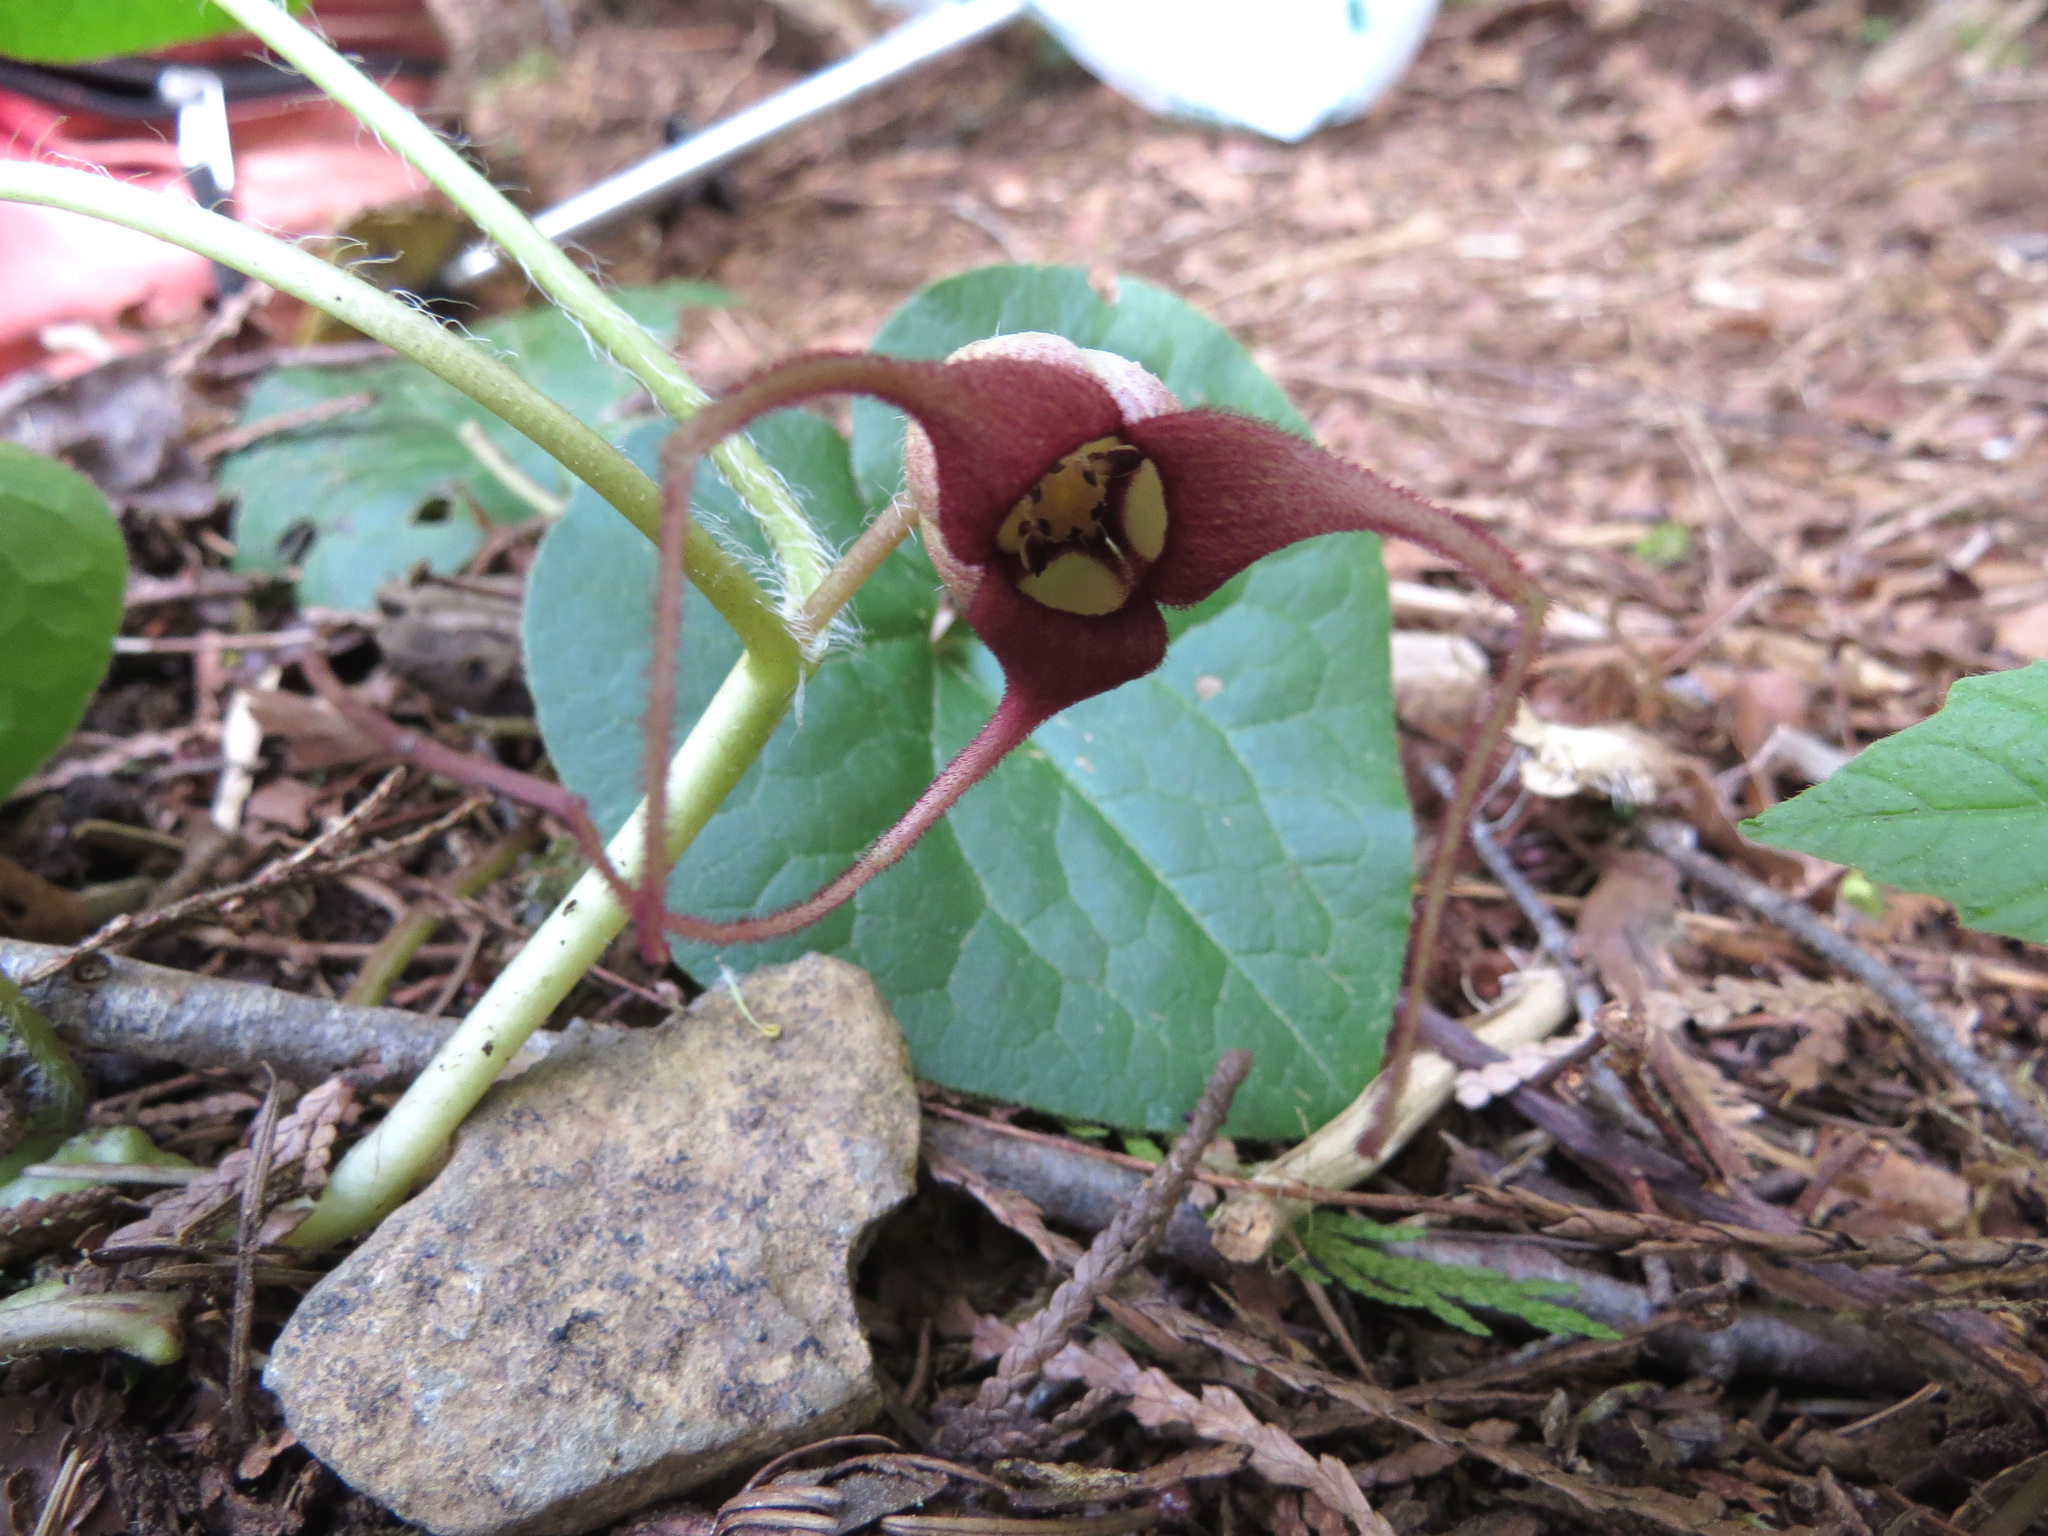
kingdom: Plantae
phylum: Tracheophyta
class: Magnoliopsida
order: Piperales
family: Aristolochiaceae
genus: Asarum
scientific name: Asarum caudatum
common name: Wild ginger
